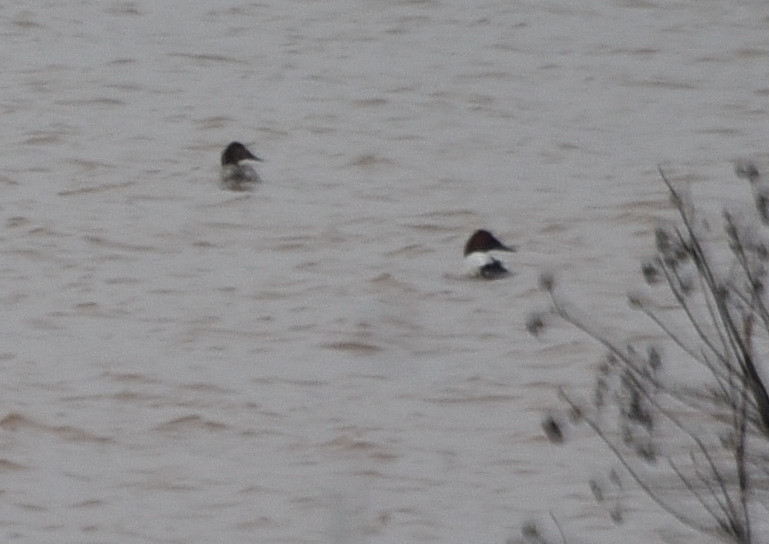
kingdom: Animalia
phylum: Chordata
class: Aves
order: Anseriformes
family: Anatidae
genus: Aythya
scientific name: Aythya valisineria
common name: Canvasback
